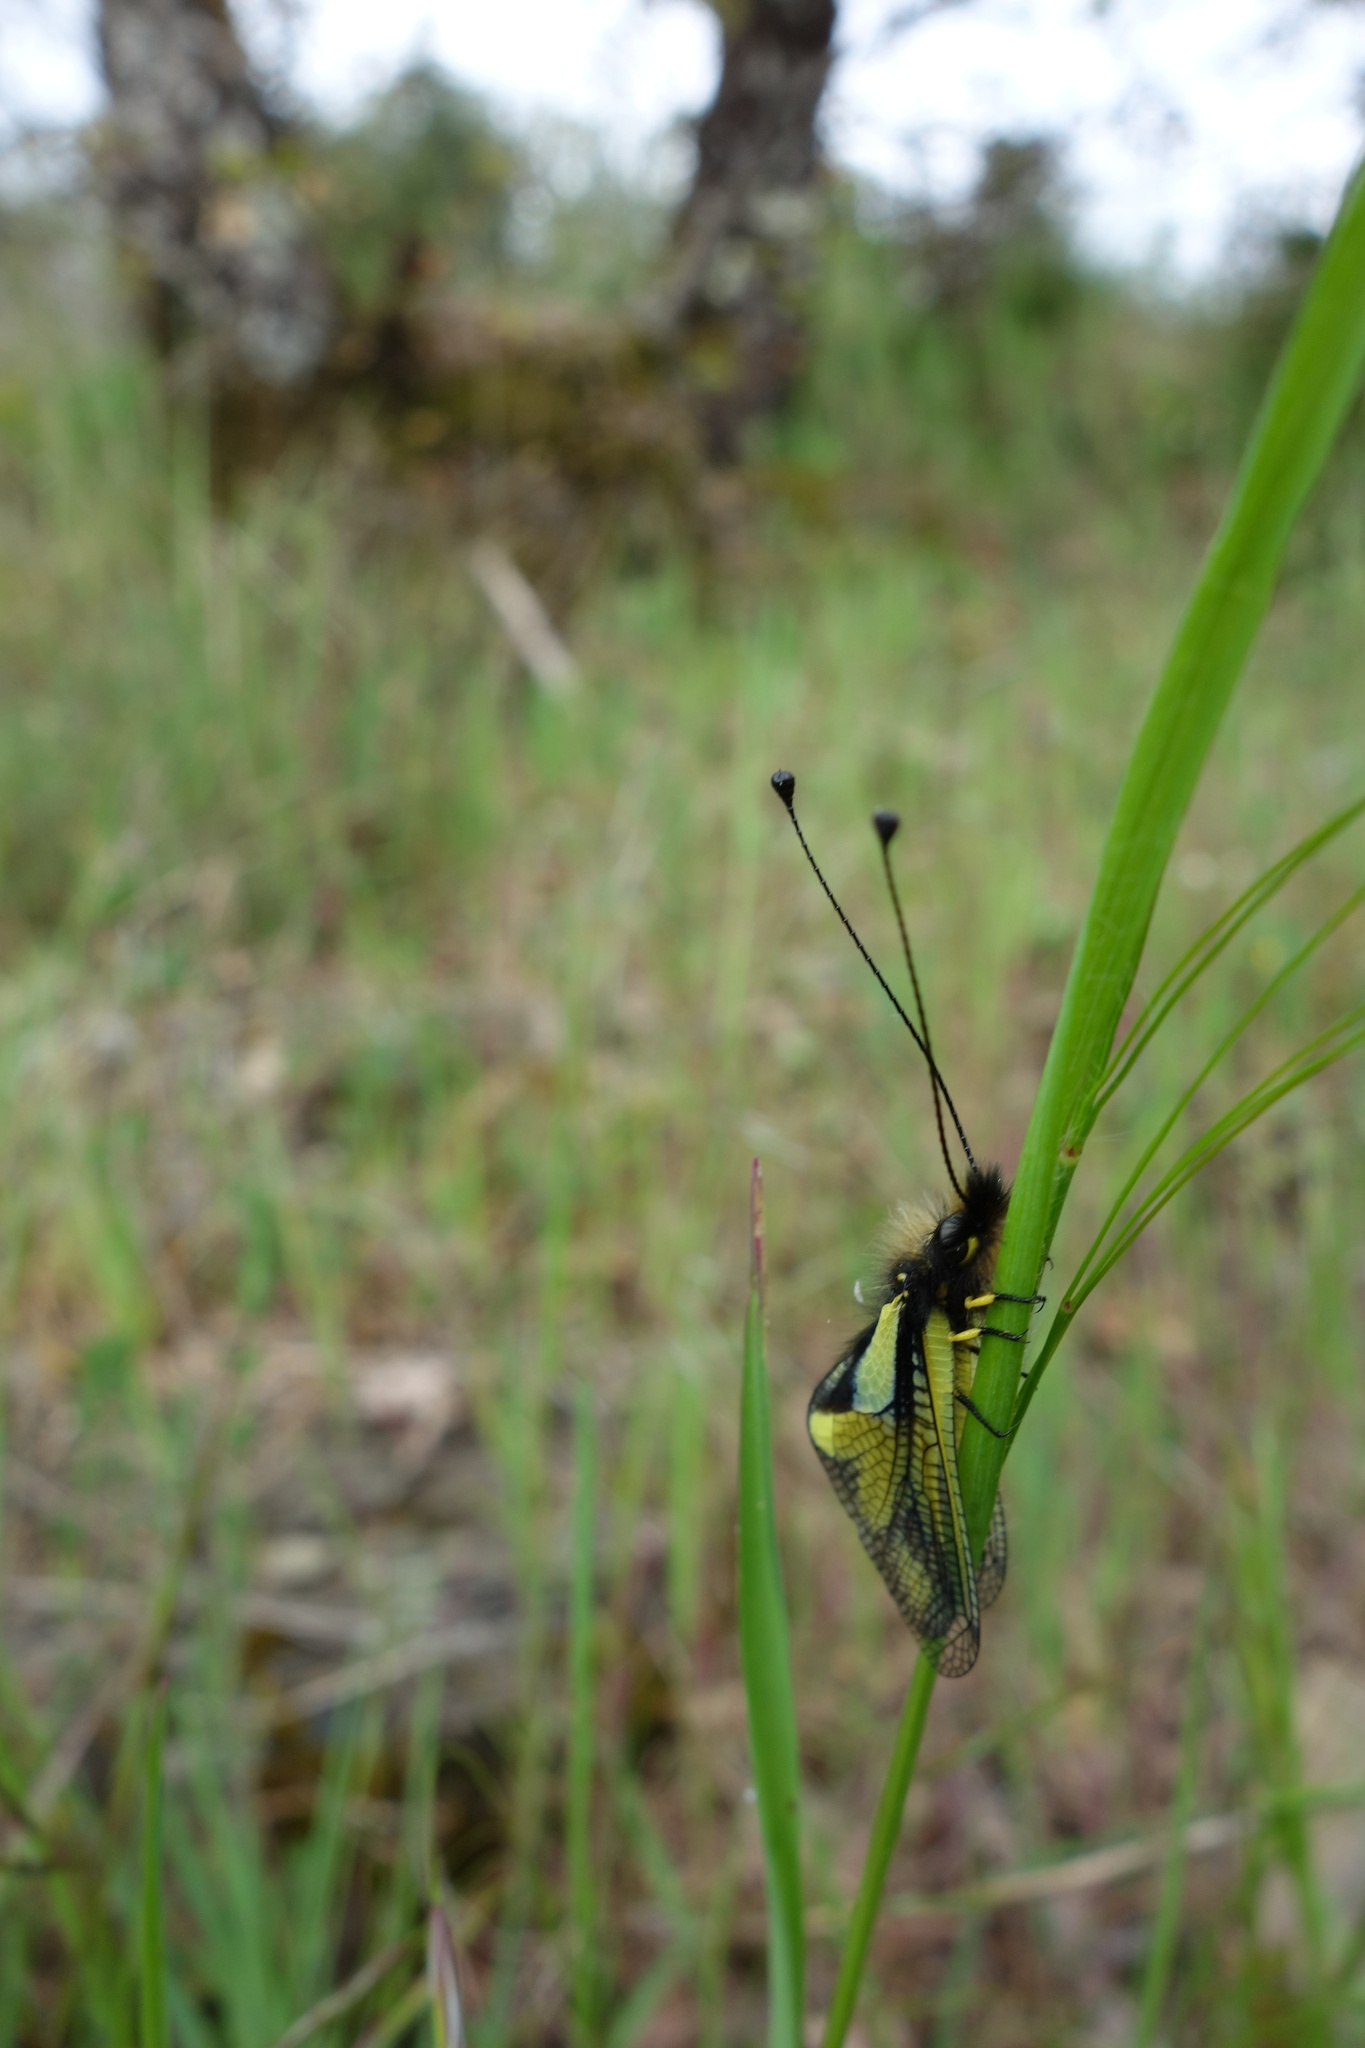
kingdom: Animalia
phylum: Arthropoda
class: Insecta
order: Neuroptera
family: Ascalaphidae
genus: Libelloides
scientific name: Libelloides coccajus
